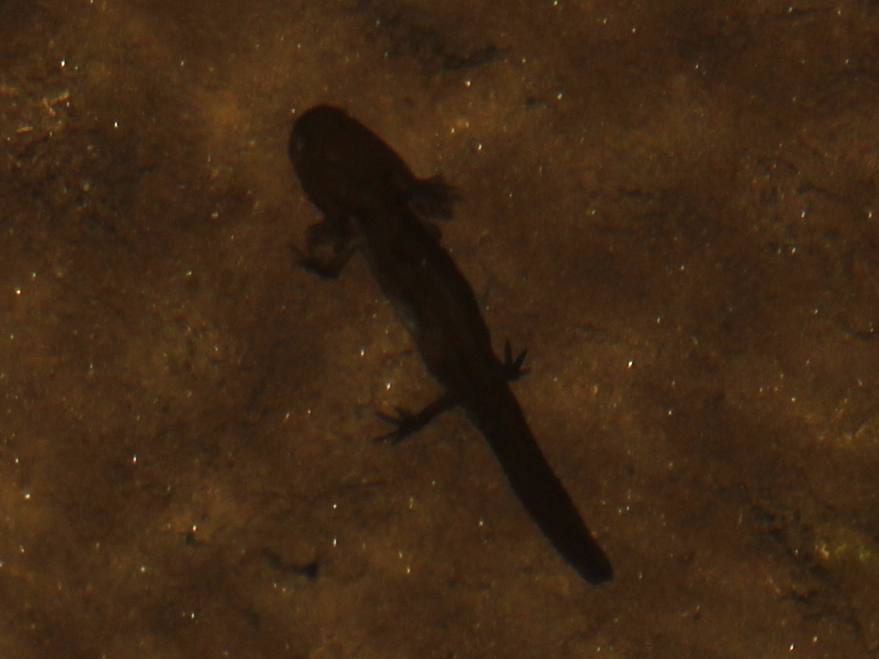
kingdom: Animalia
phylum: Chordata
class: Amphibia
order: Caudata
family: Ambystomatidae
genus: Ambystoma
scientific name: Ambystoma maculatum
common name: Spotted salamander
